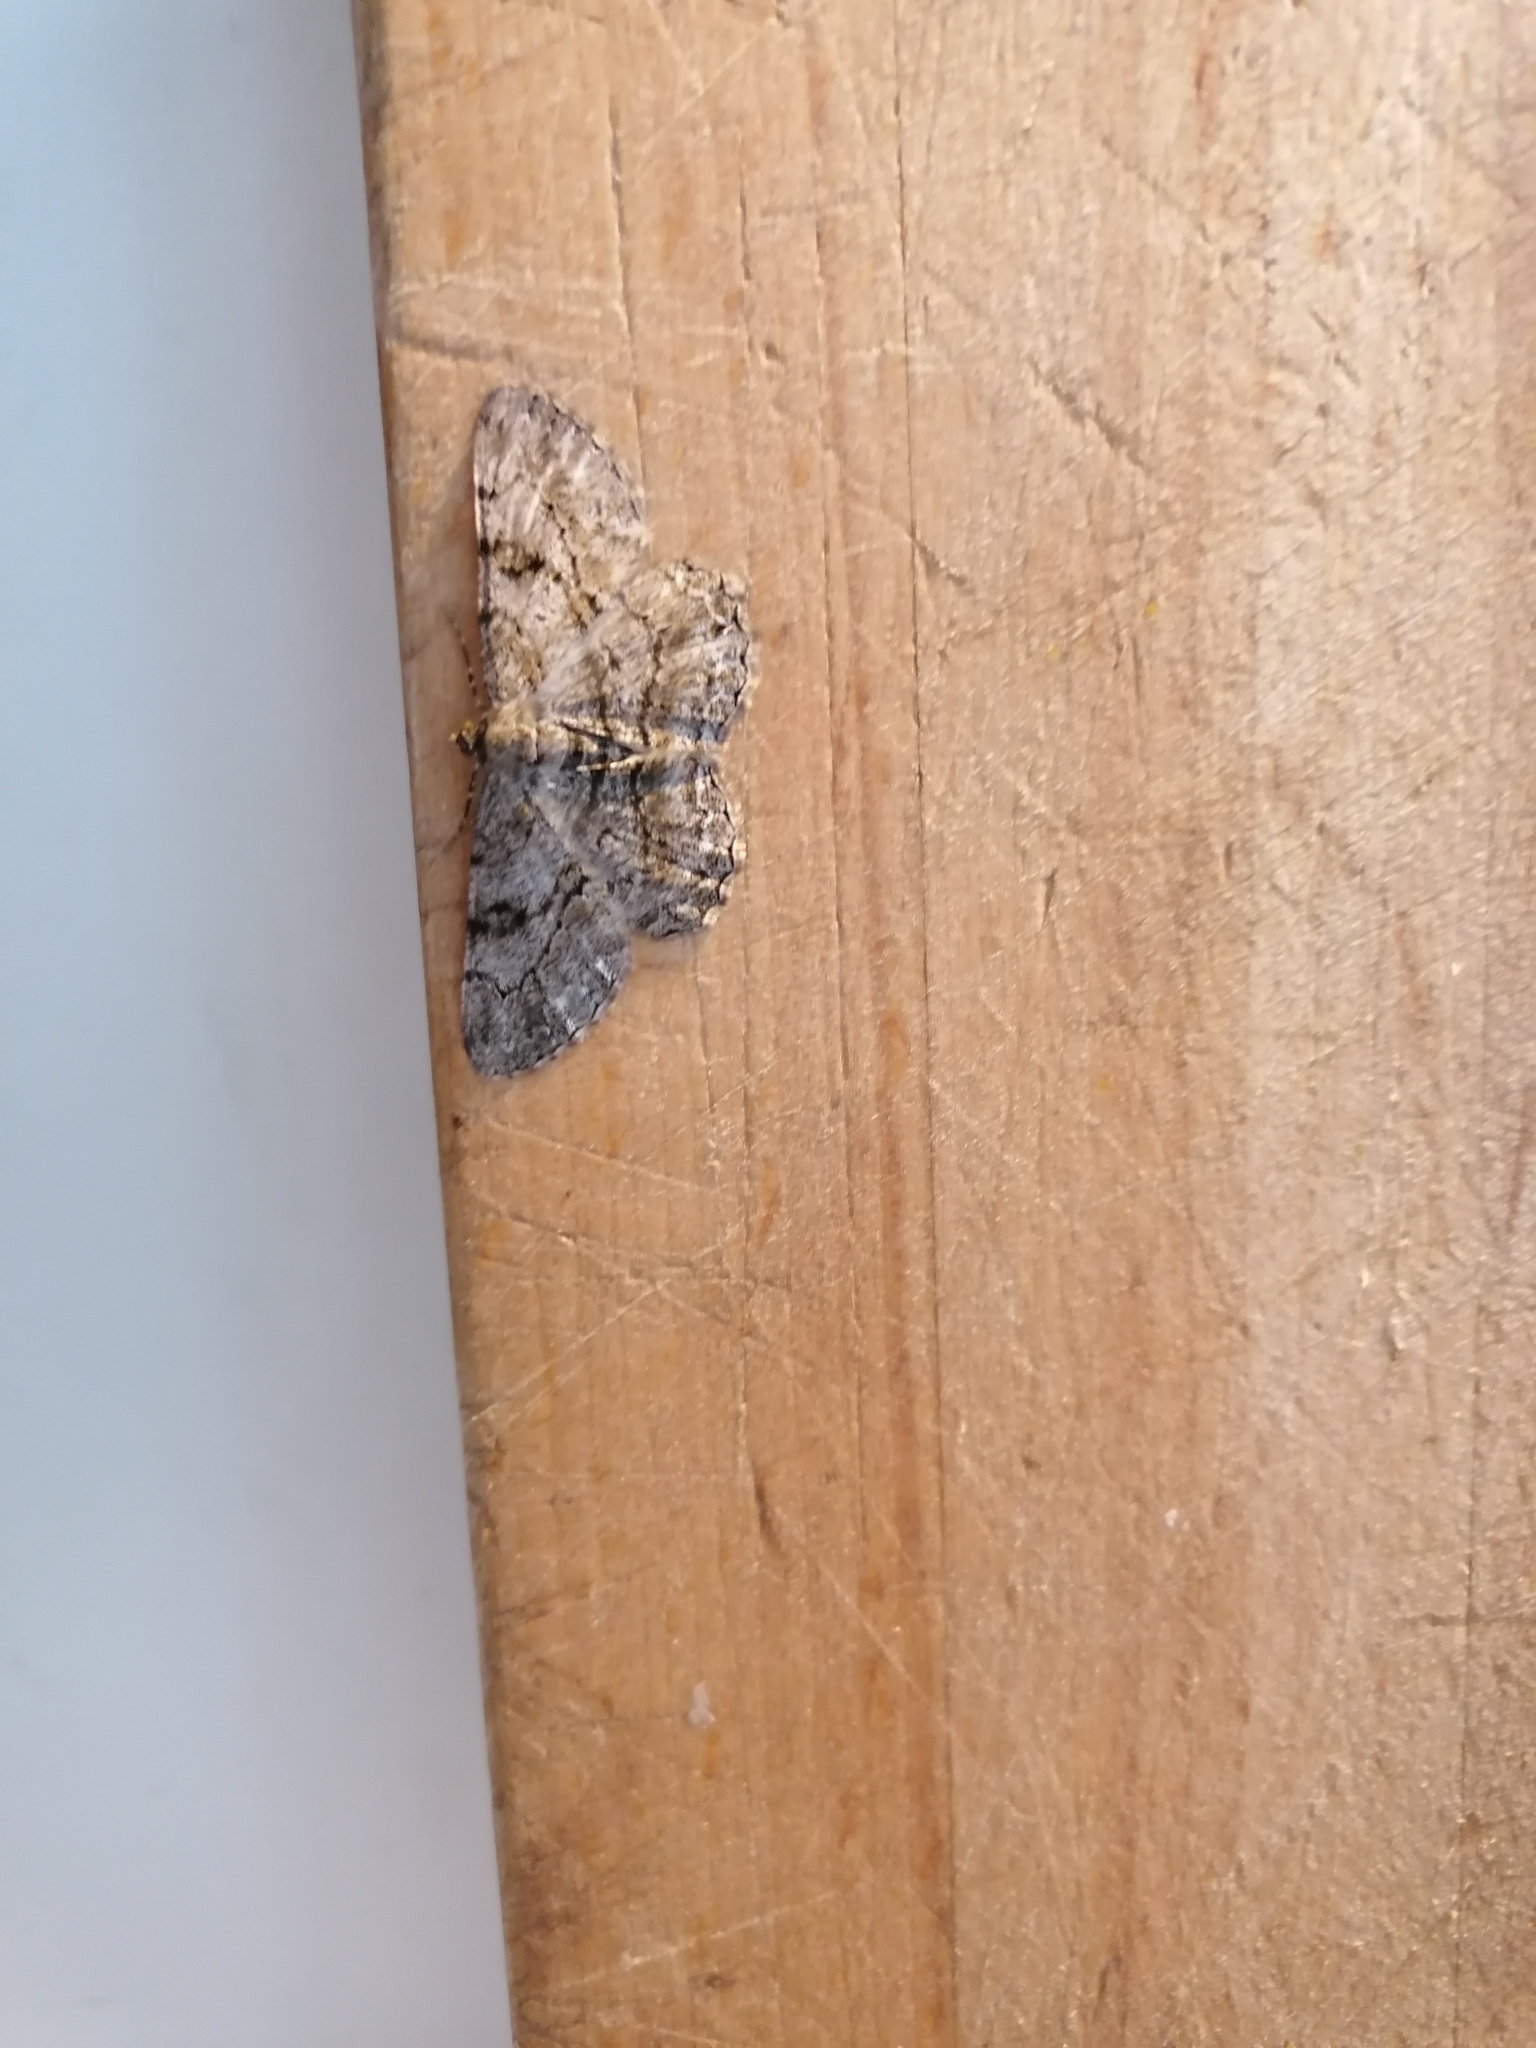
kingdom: Animalia
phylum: Arthropoda
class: Insecta
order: Lepidoptera
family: Geometridae
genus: Peribatodes
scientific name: Peribatodes rhomboidaria
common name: Willow beauty
